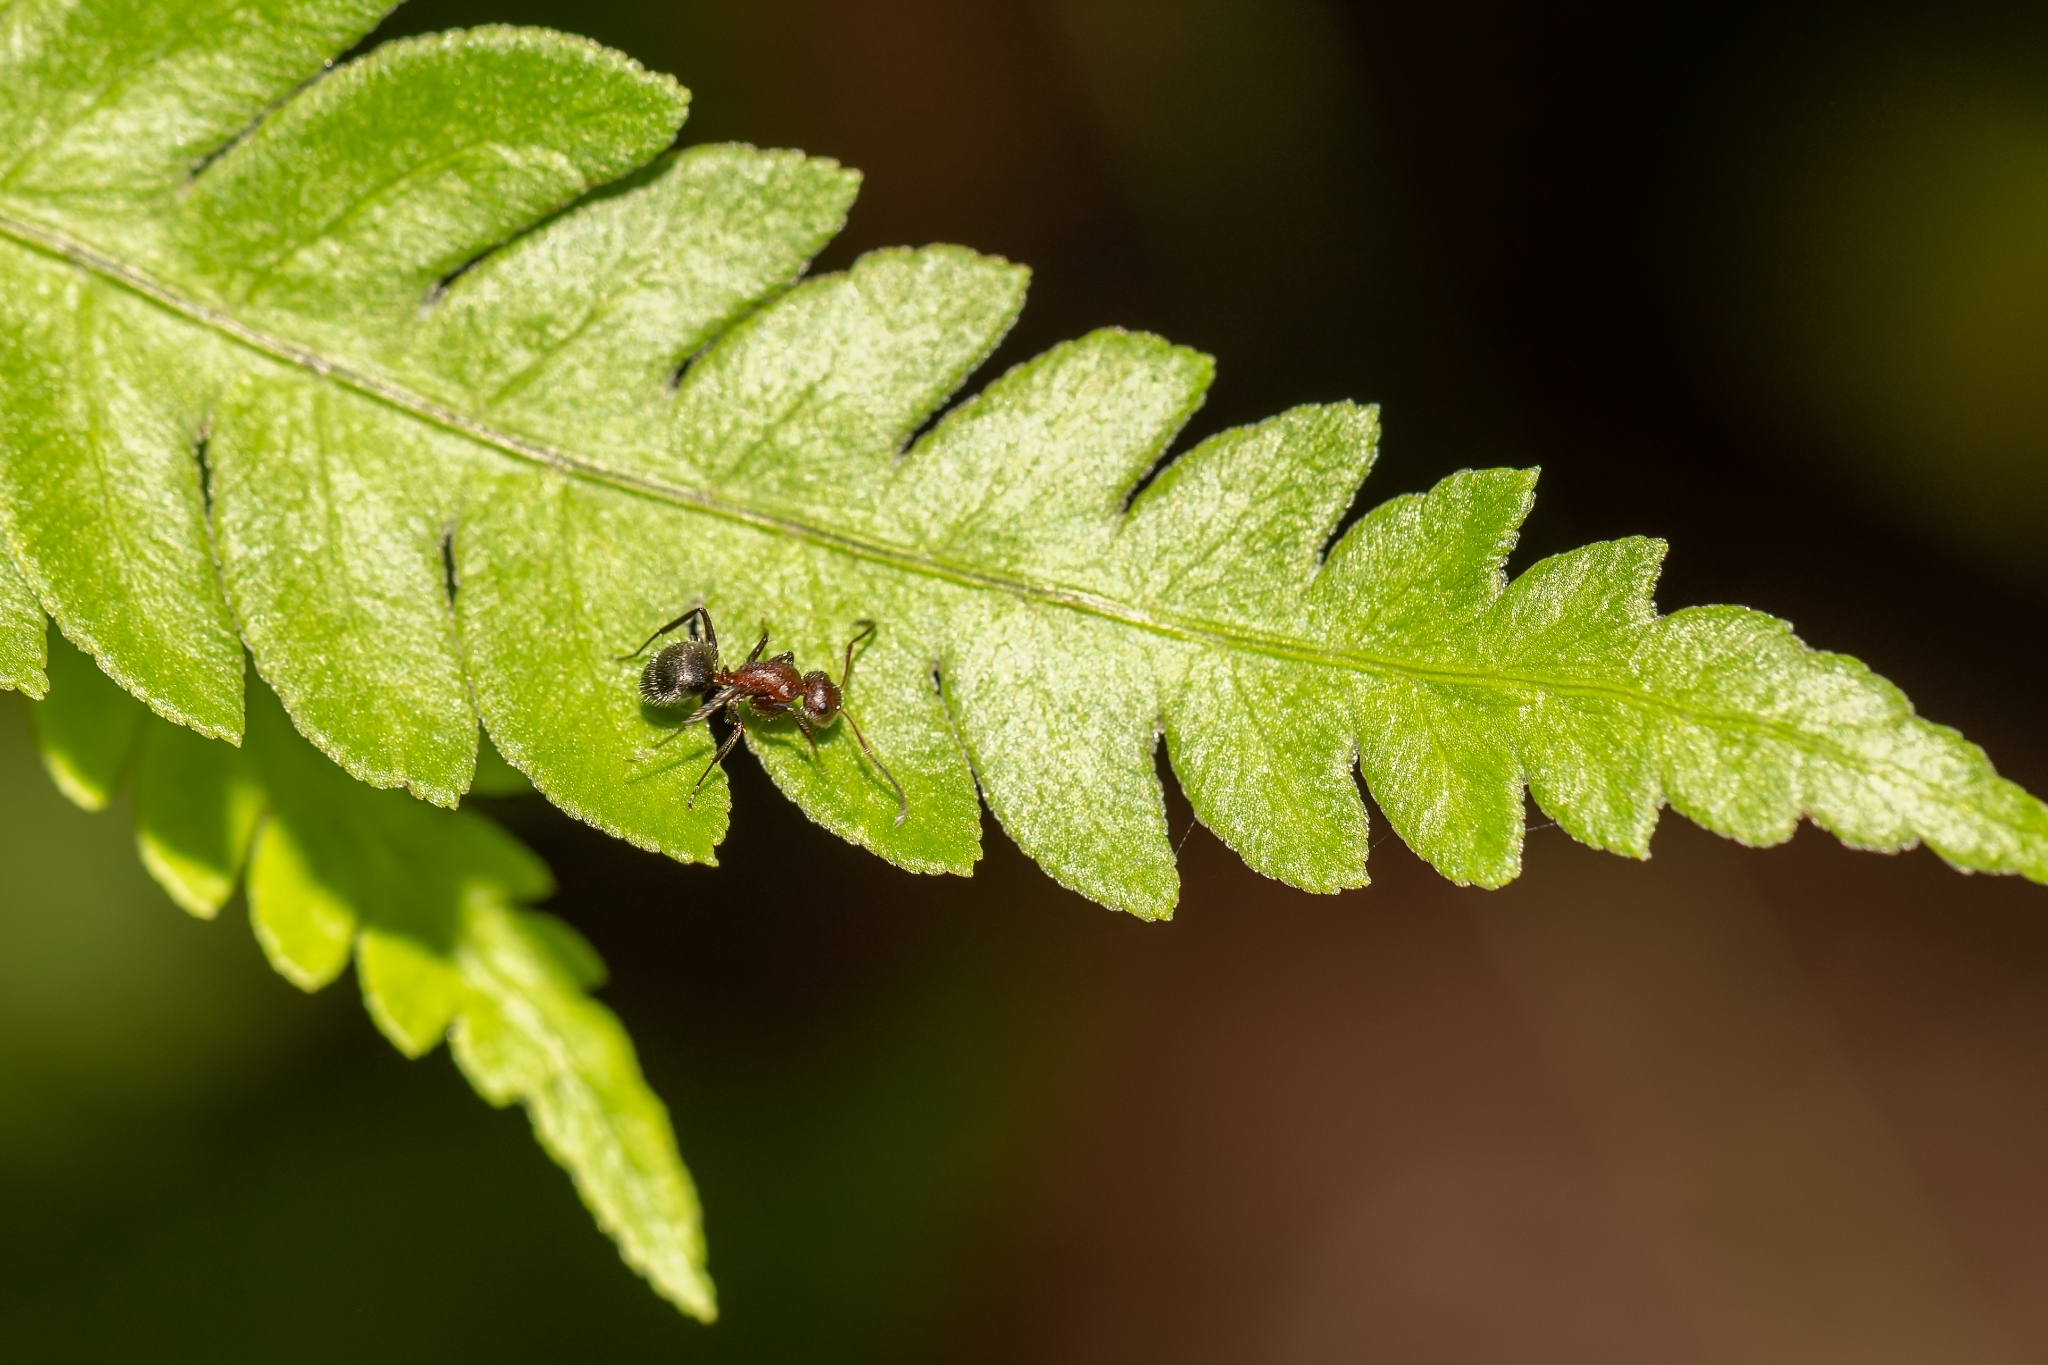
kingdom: Animalia
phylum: Arthropoda
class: Insecta
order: Hymenoptera
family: Formicidae
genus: Camponotus
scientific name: Camponotus planatus
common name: Compact carpenter ant
